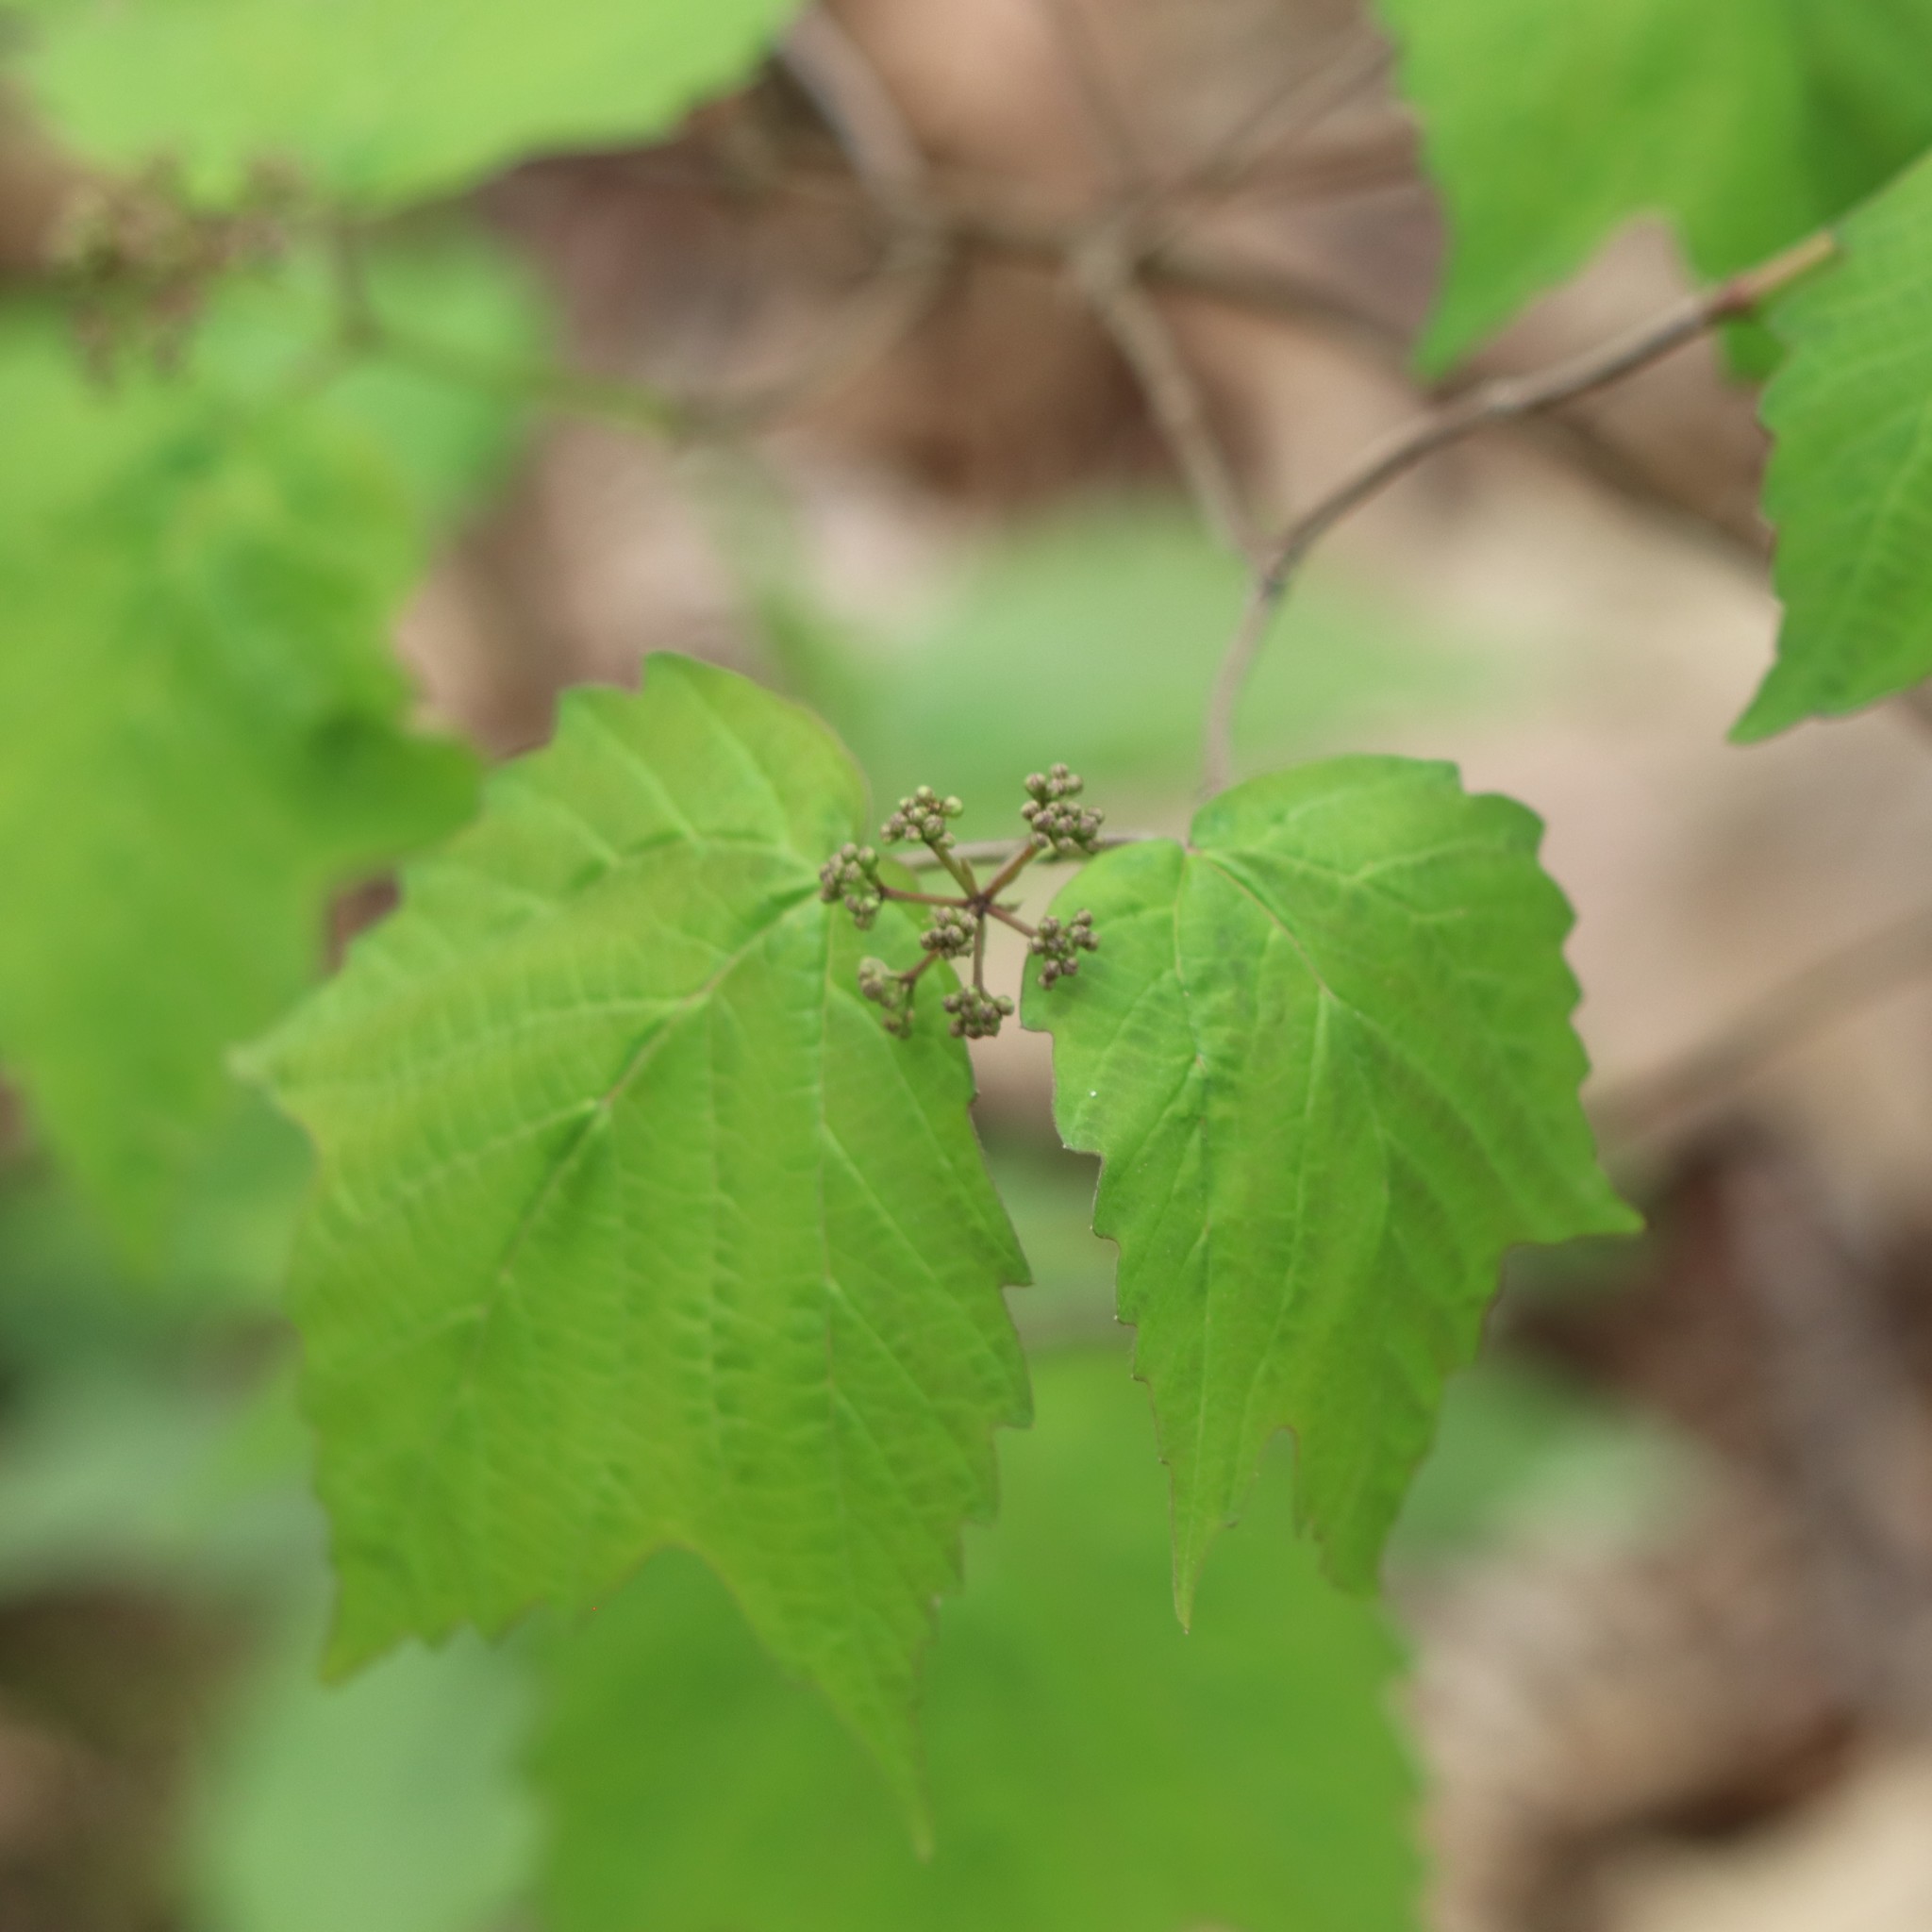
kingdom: Plantae
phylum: Tracheophyta
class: Magnoliopsida
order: Dipsacales
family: Viburnaceae
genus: Viburnum
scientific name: Viburnum acerifolium
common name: Dockmackie
